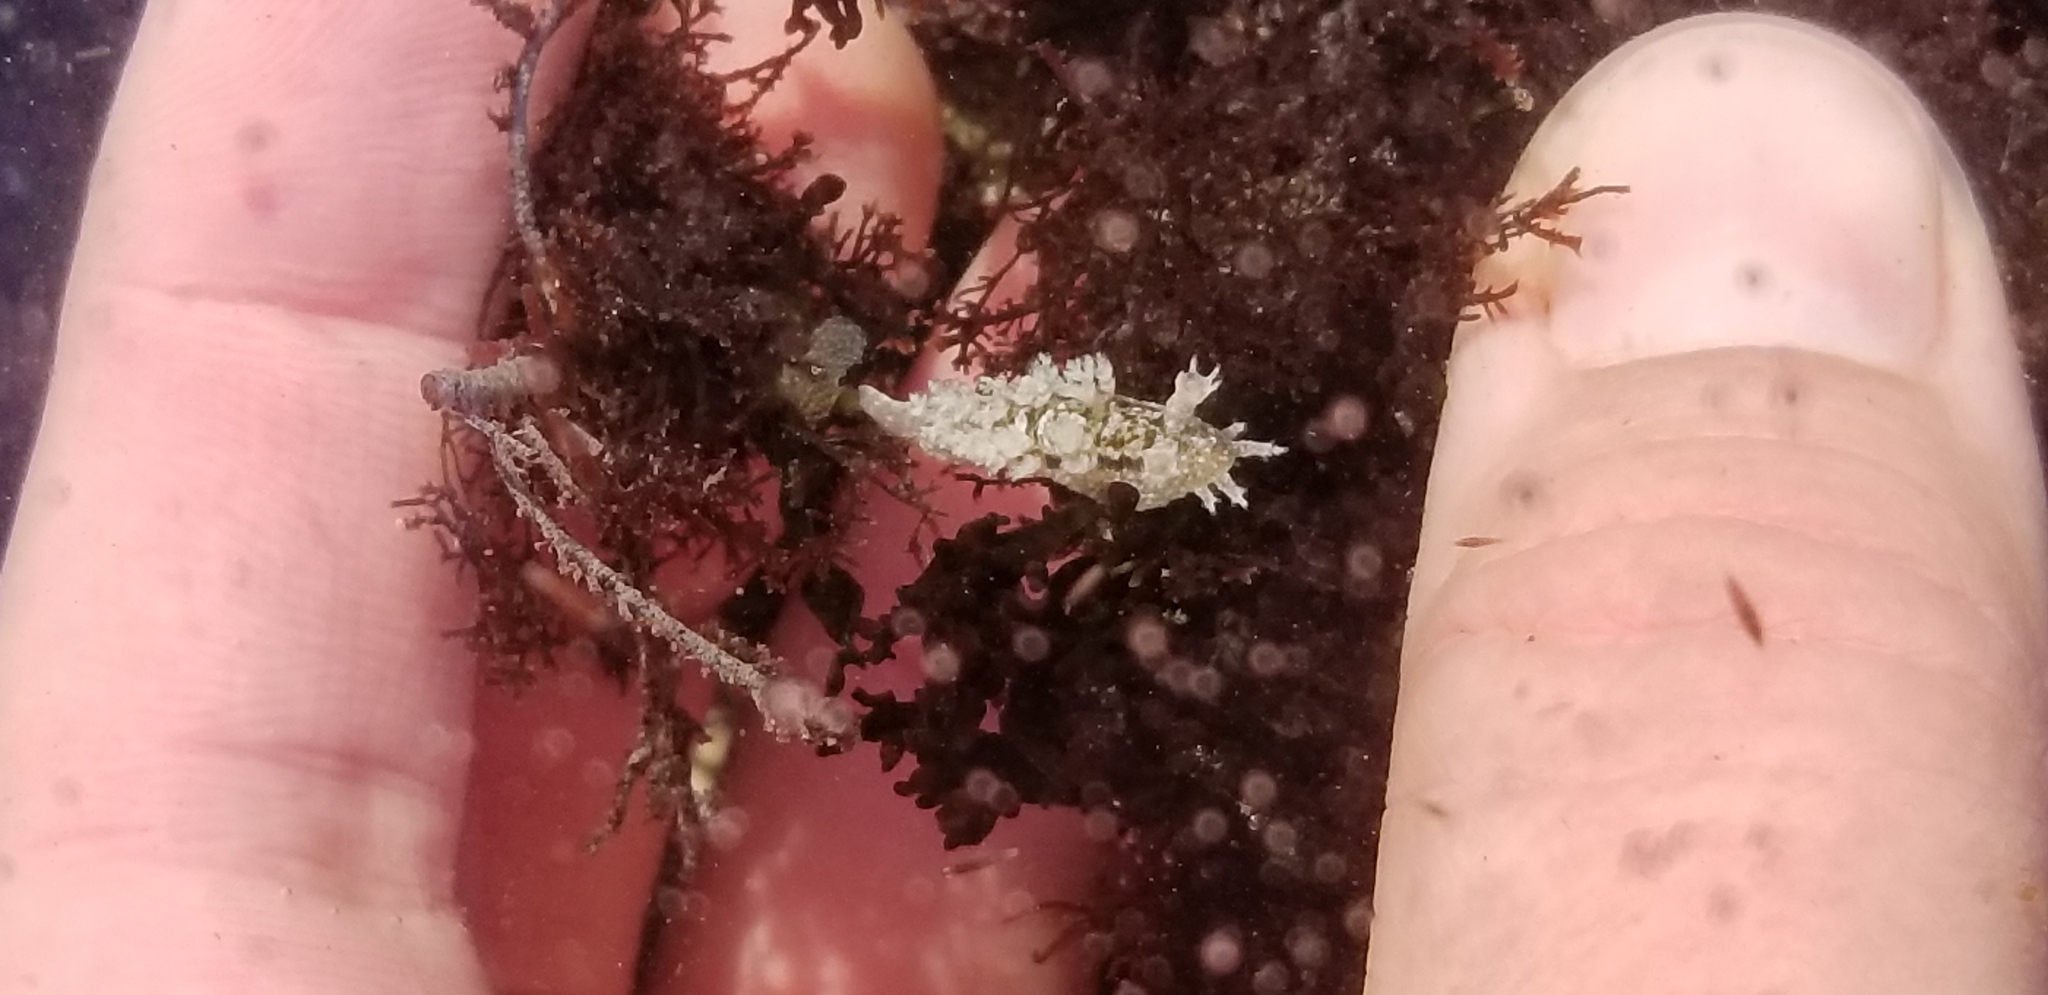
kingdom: Animalia
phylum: Mollusca
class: Gastropoda
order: Nudibranchia
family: Dendronotidae
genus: Dendronotus
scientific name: Dendronotus subramosus
